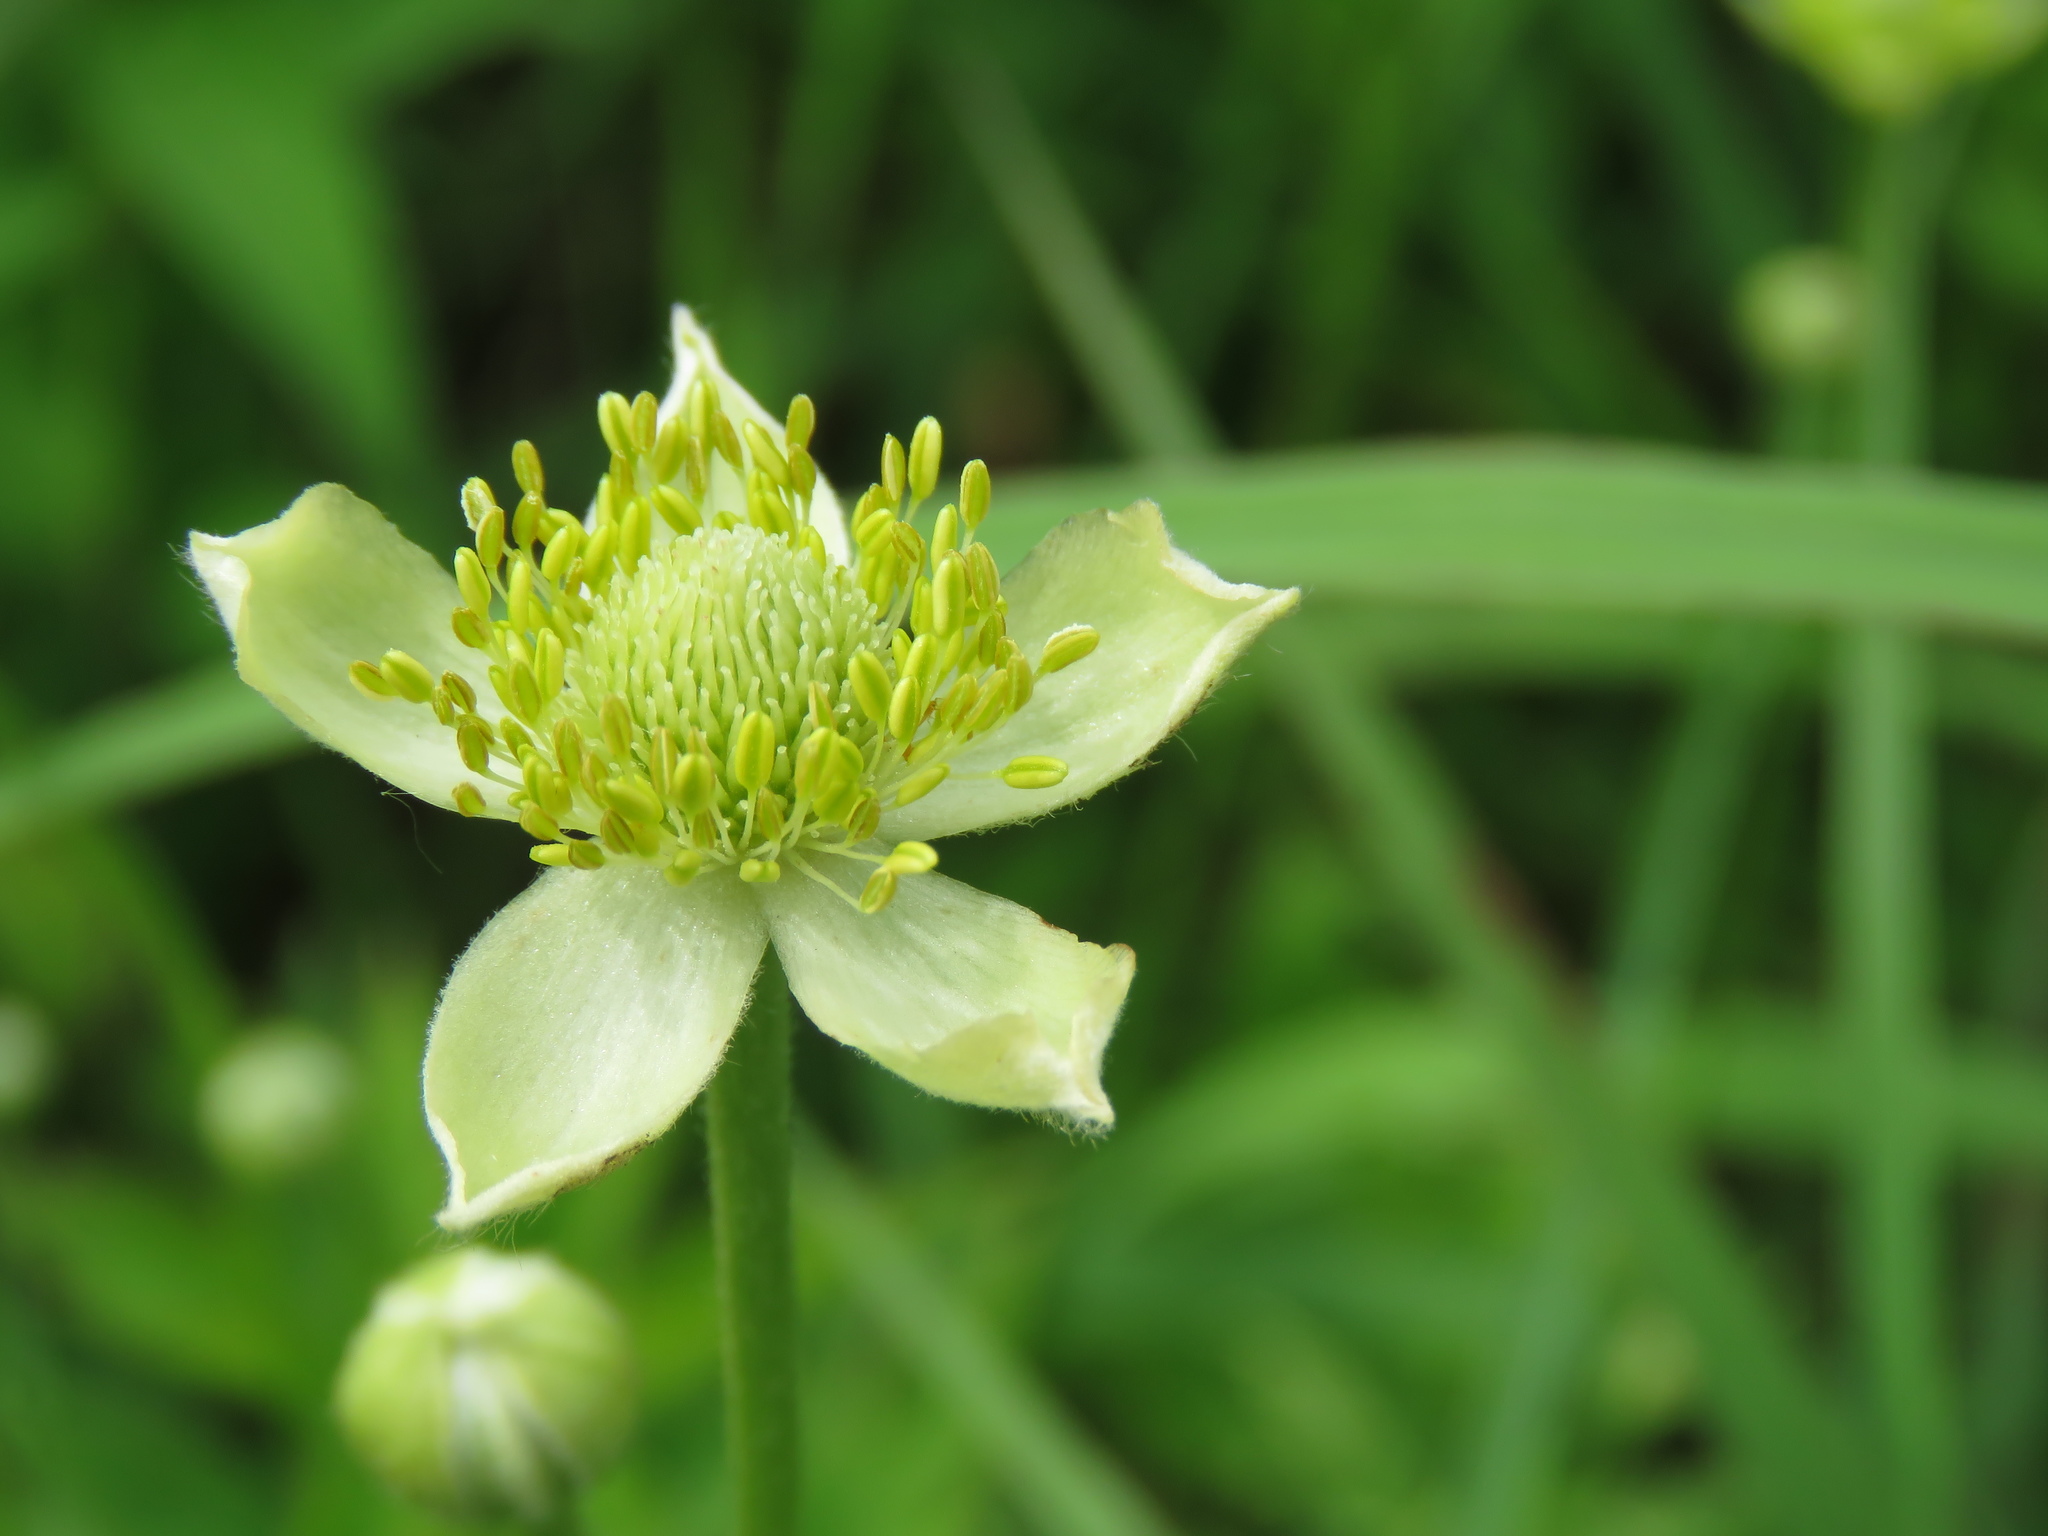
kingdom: Plantae
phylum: Tracheophyta
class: Magnoliopsida
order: Ranunculales
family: Ranunculaceae
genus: Anemone
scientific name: Anemone virginiana
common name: Tall anemone
